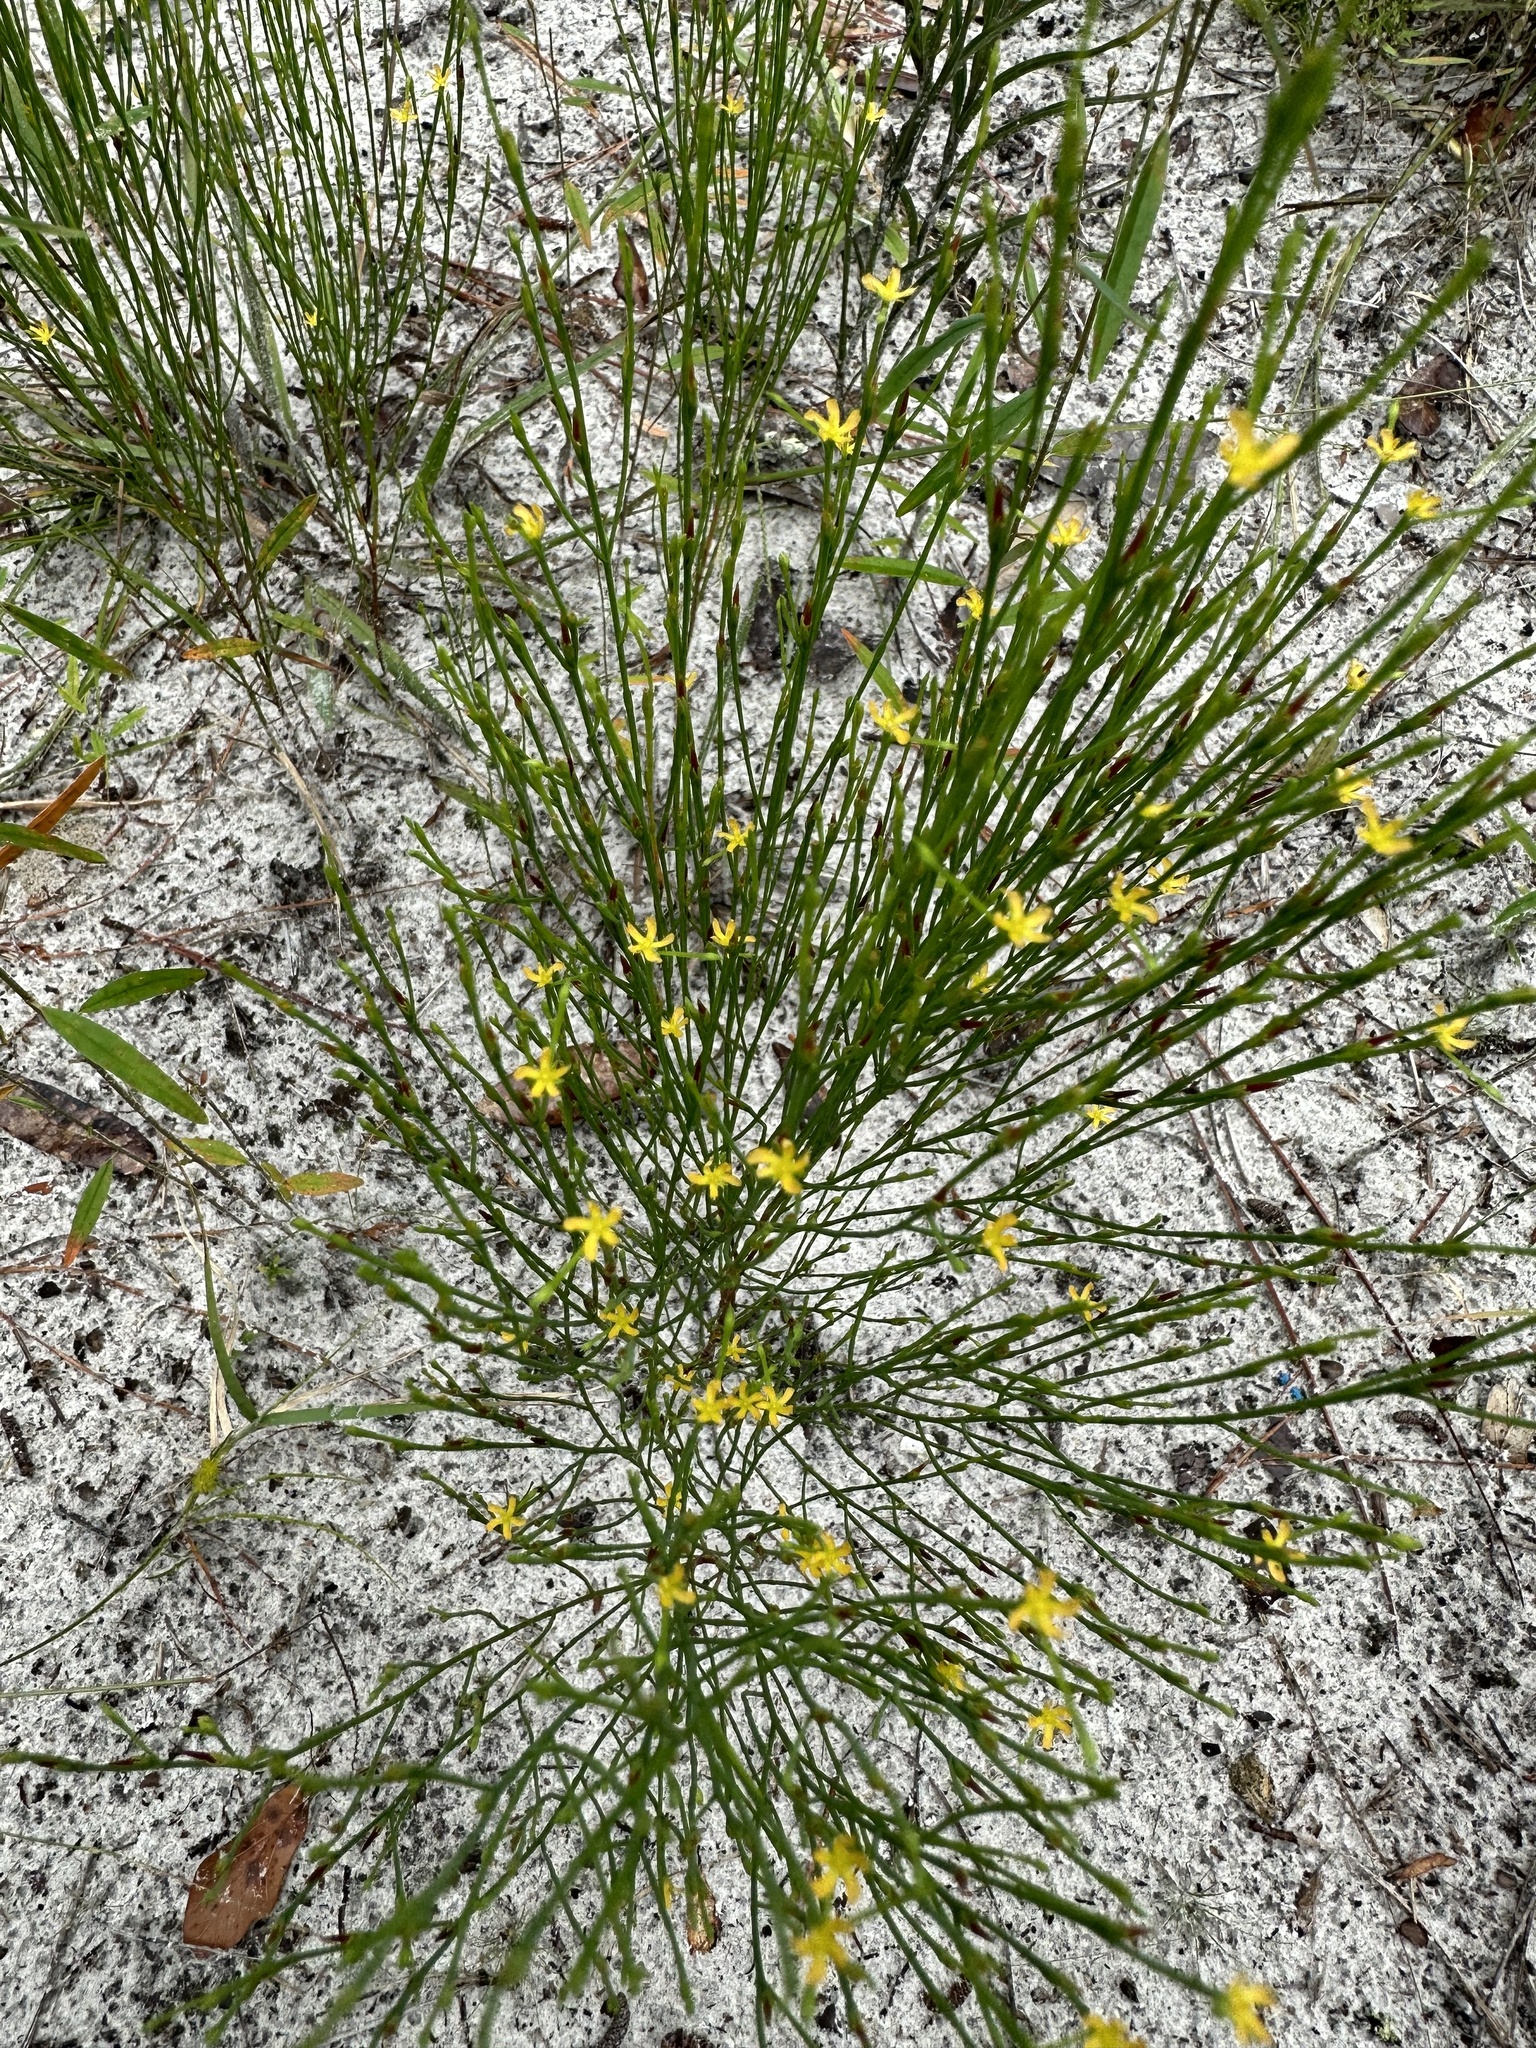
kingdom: Plantae
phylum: Tracheophyta
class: Magnoliopsida
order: Malpighiales
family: Hypericaceae
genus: Hypericum
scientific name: Hypericum gentianoides
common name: Gentian-leaved st. john's-wort
